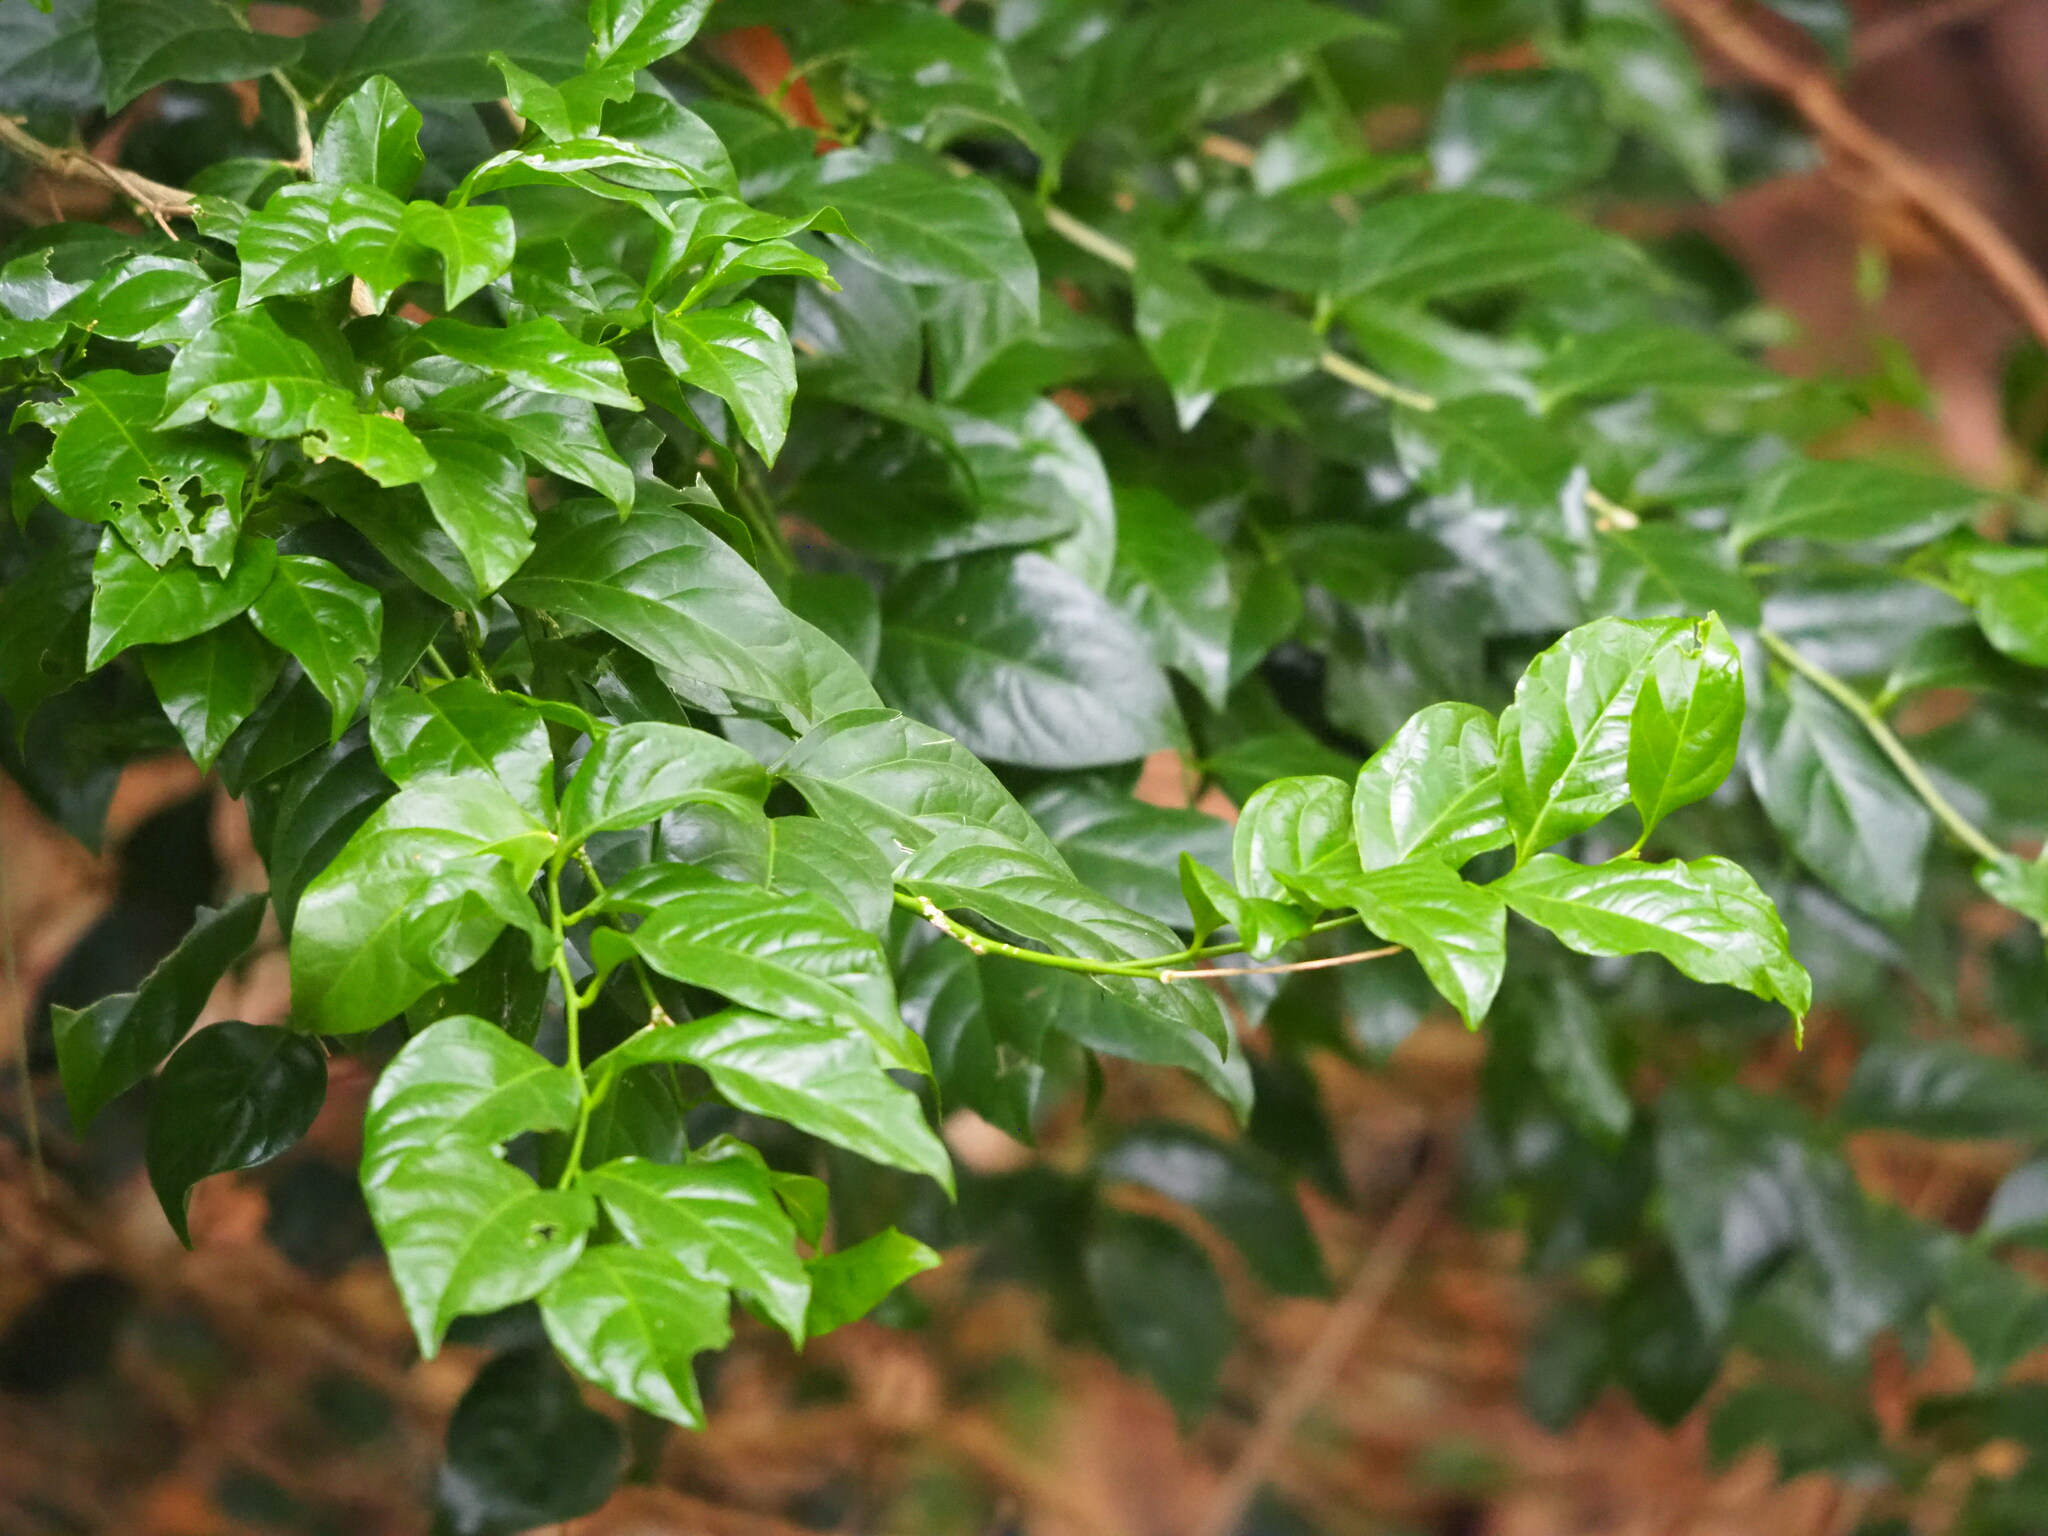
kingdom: Plantae
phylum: Tracheophyta
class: Magnoliopsida
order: Santalales
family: Opiliaceae
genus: Champereia
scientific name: Champereia manillana
